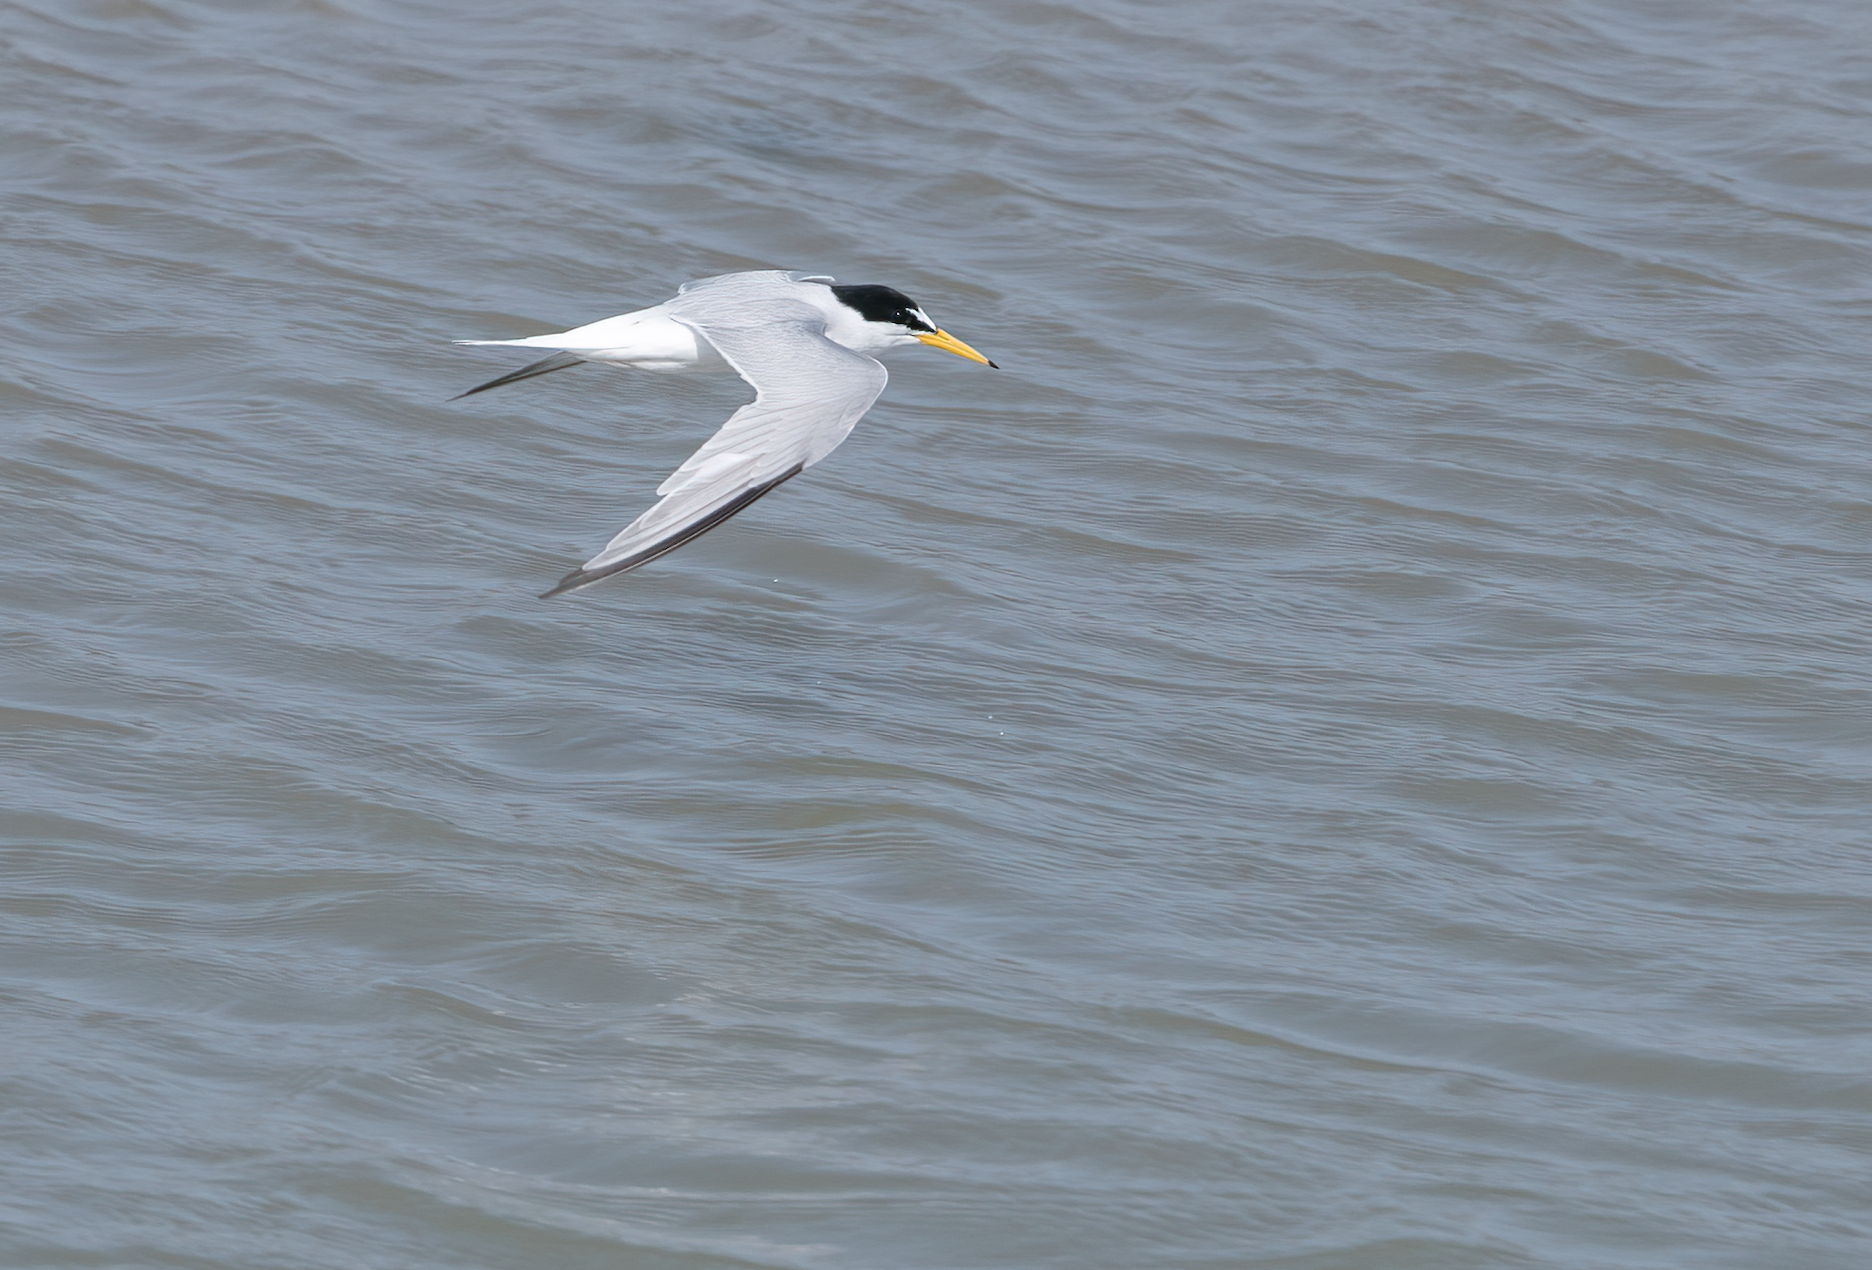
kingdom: Animalia
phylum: Chordata
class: Aves
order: Charadriiformes
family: Laridae
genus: Sternula
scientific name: Sternula albifrons
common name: Little tern
